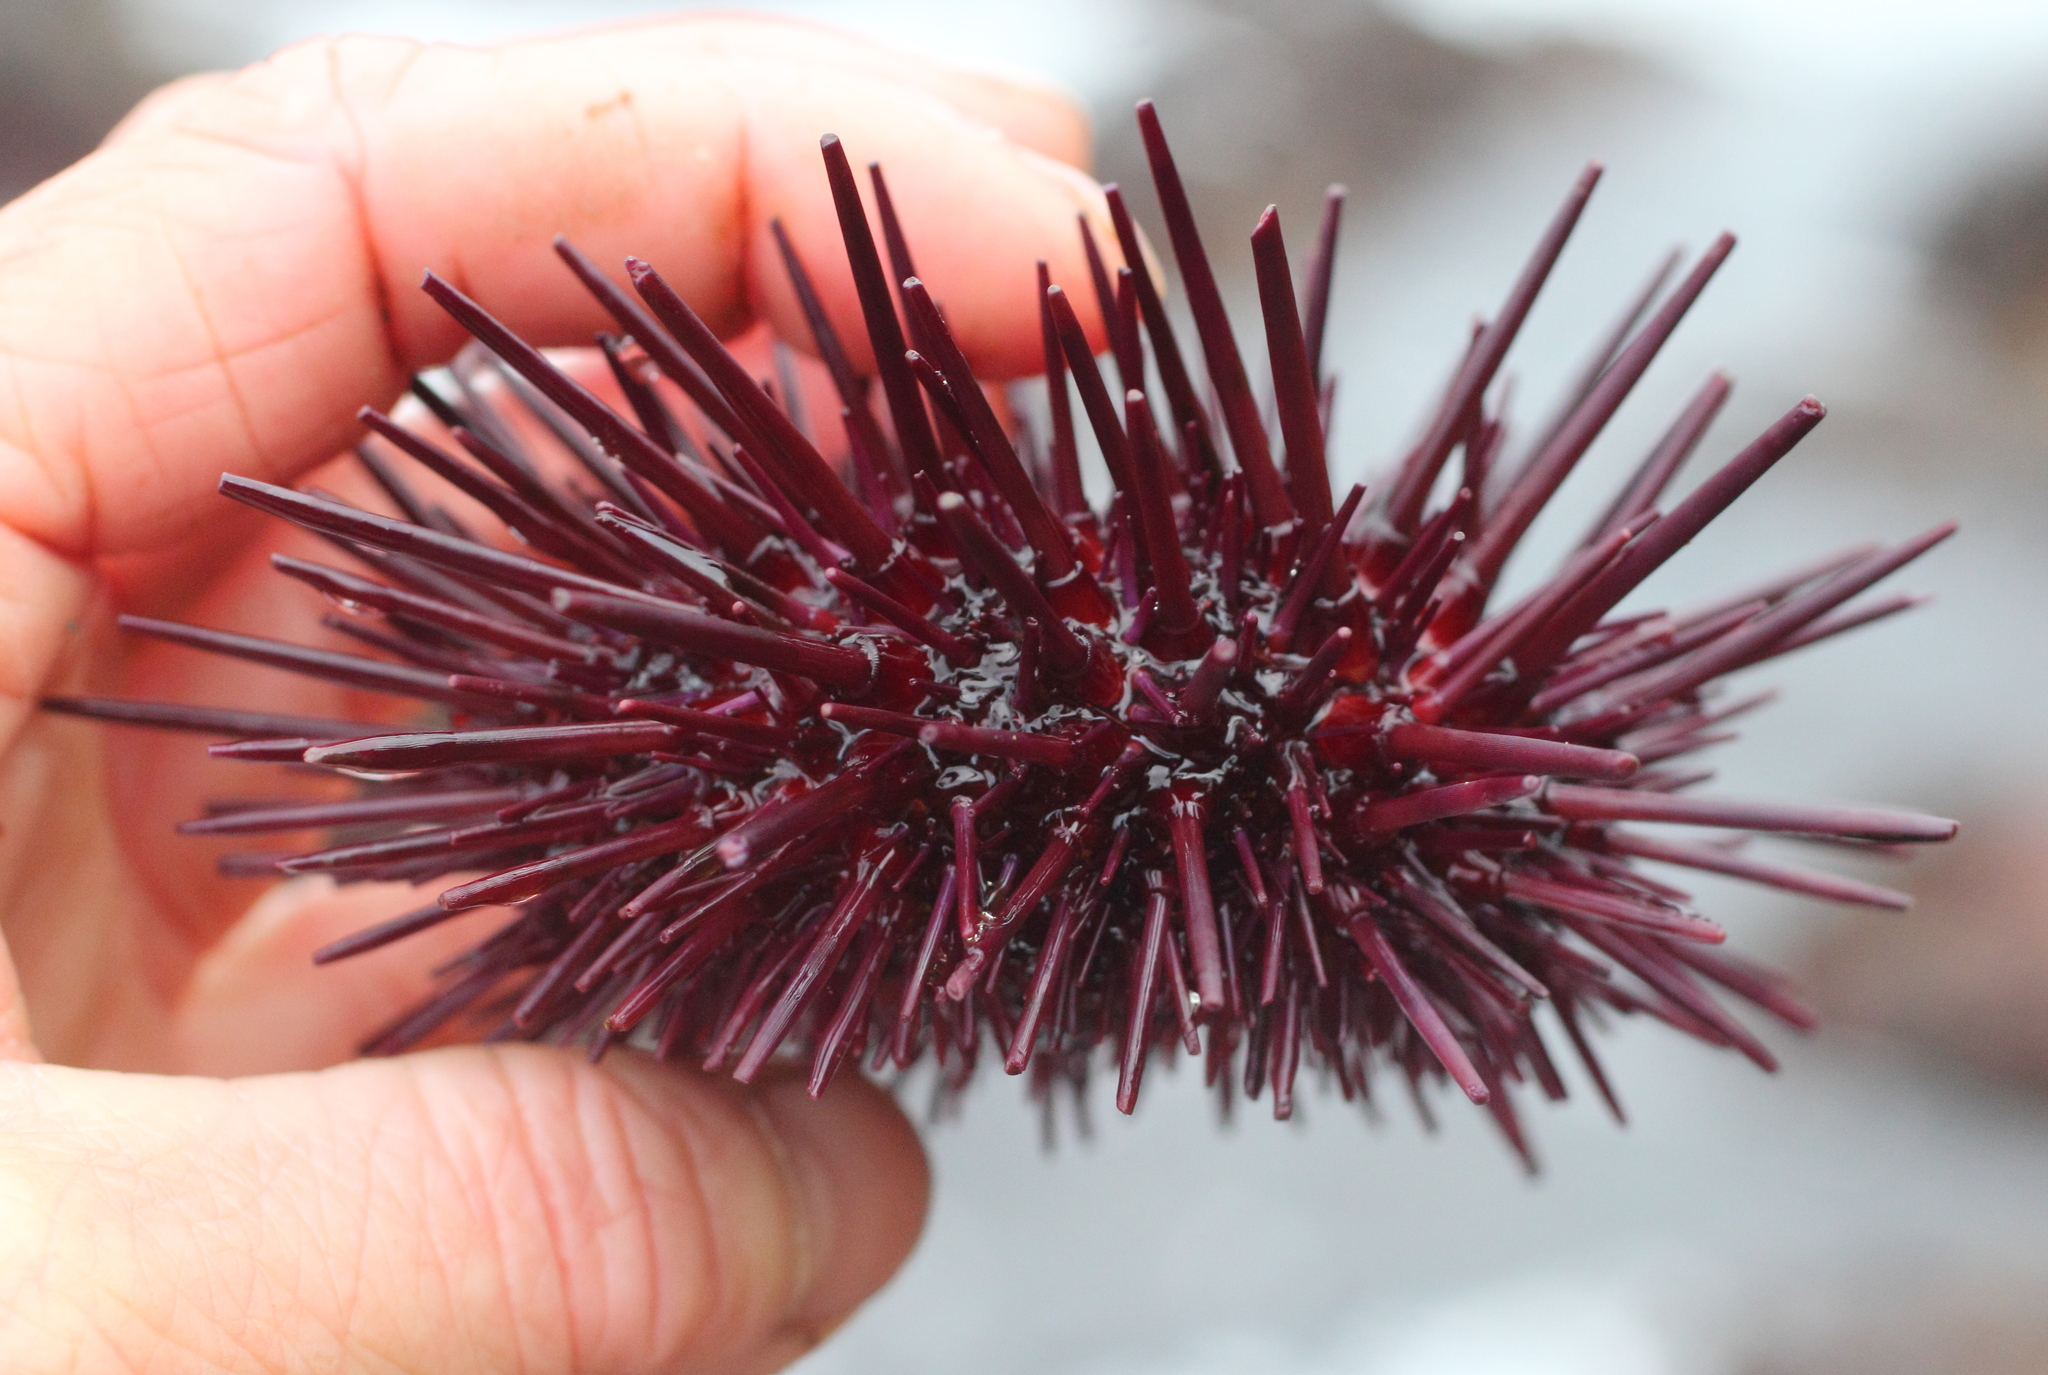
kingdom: Animalia
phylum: Echinodermata
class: Echinoidea
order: Camarodonta
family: Strongylocentrotidae
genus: Mesocentrotus
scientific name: Mesocentrotus franciscanus
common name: Red sea urchin
